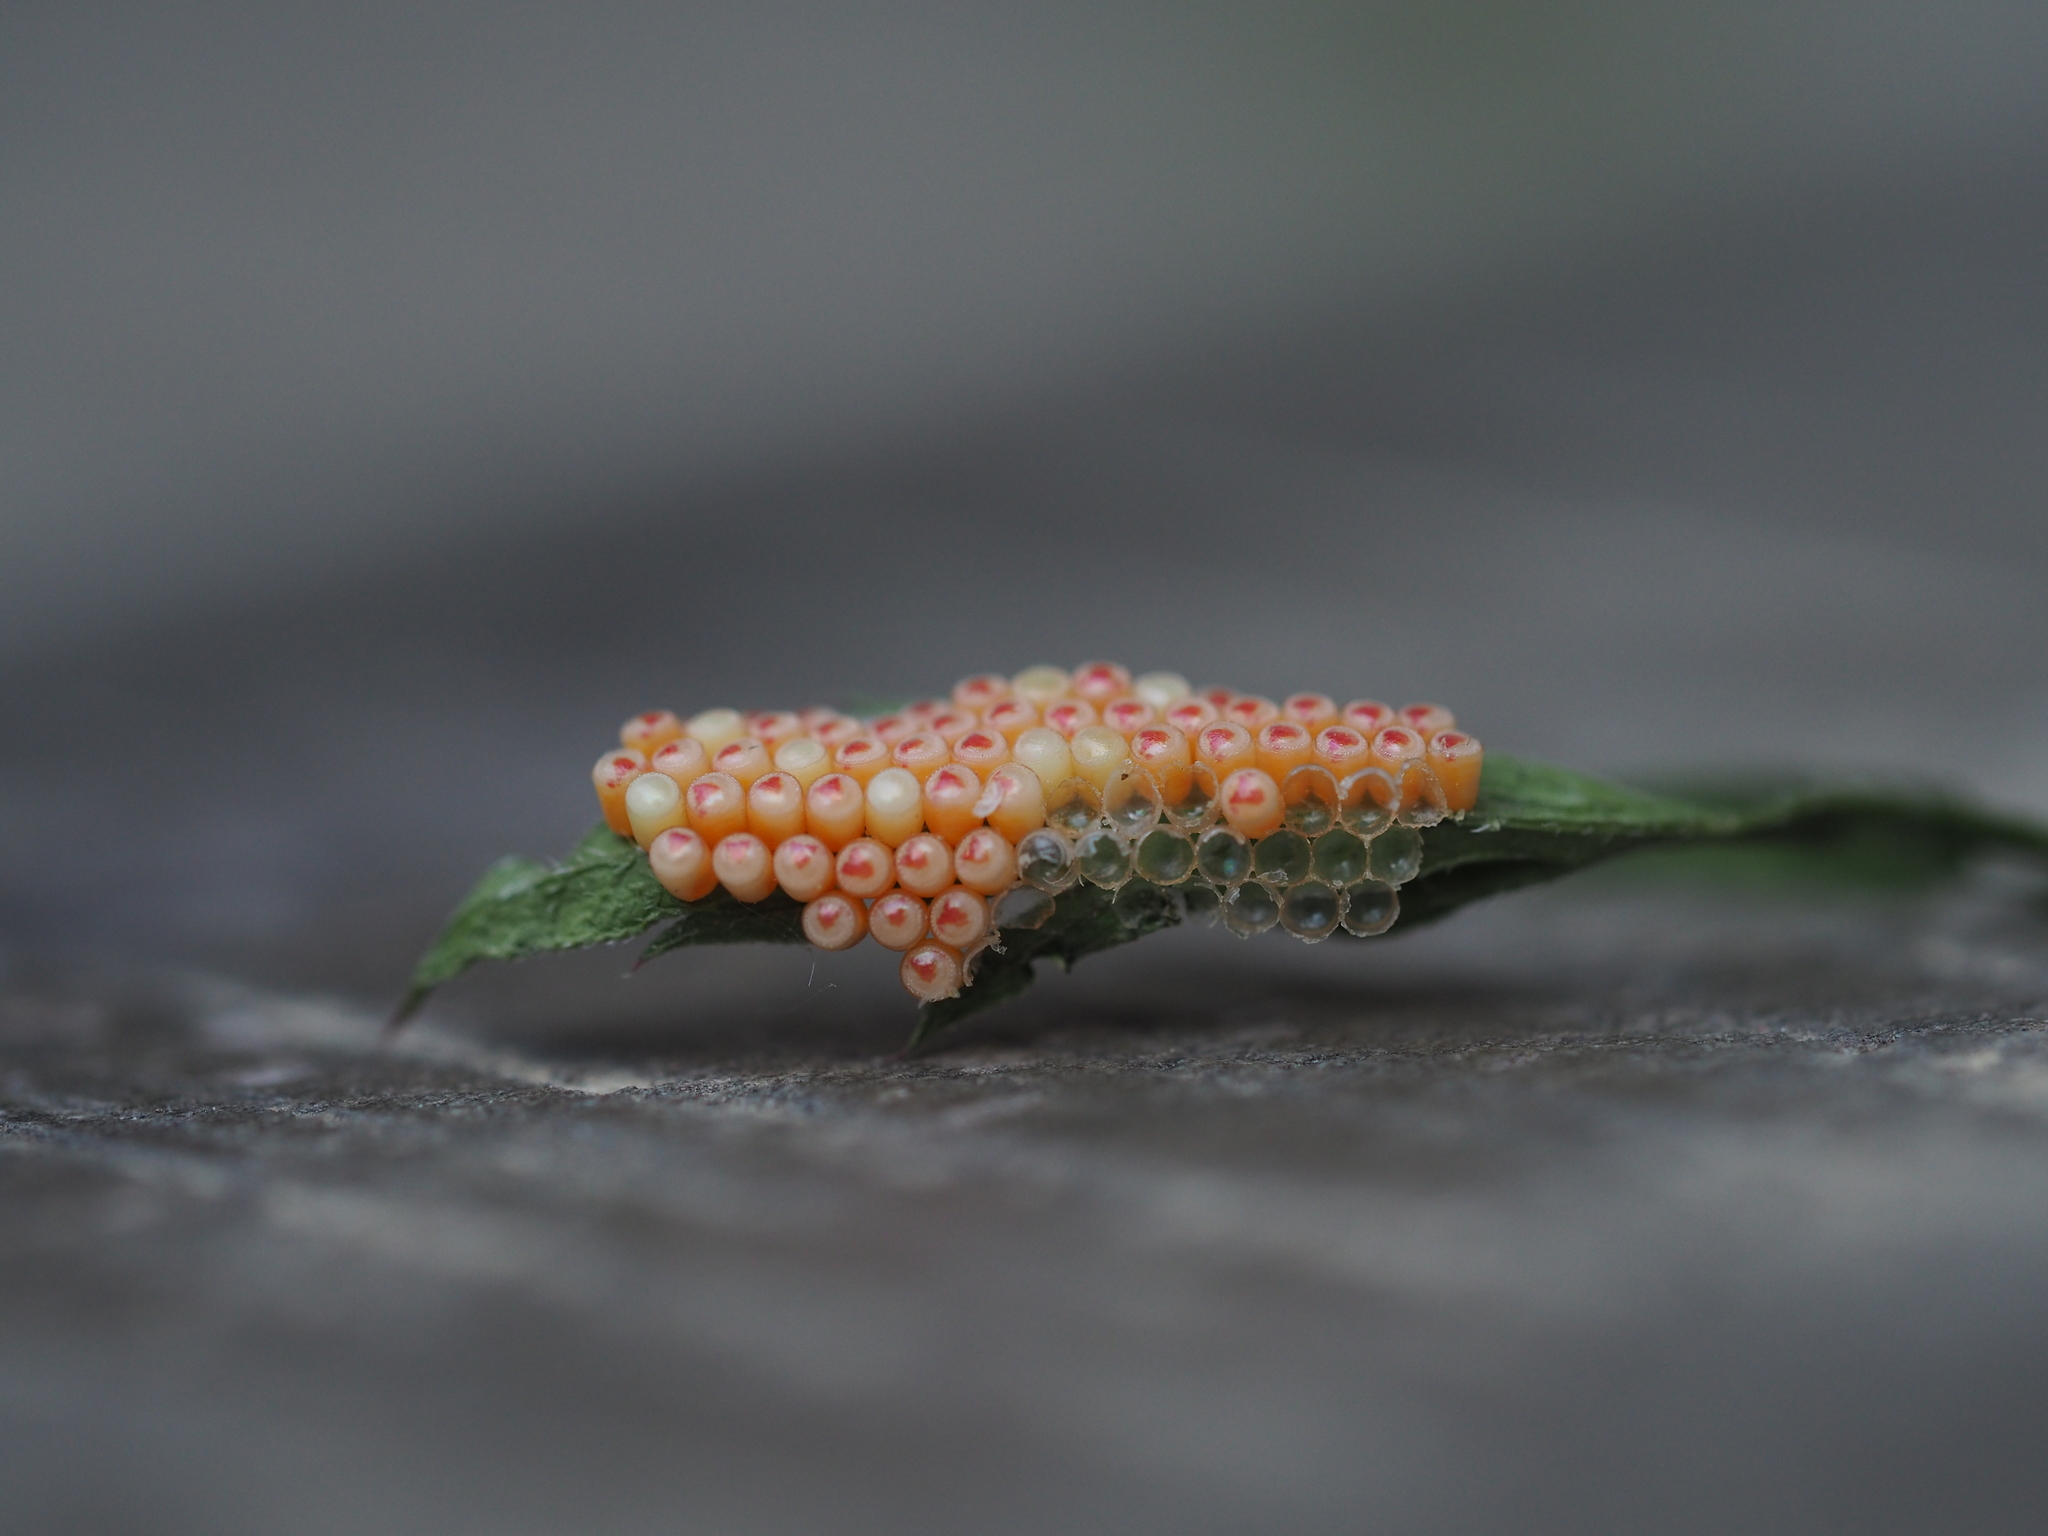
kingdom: Animalia
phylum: Arthropoda
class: Insecta
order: Hemiptera
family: Pentatomidae
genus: Nezara
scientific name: Nezara viridula
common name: Southern green stink bug
